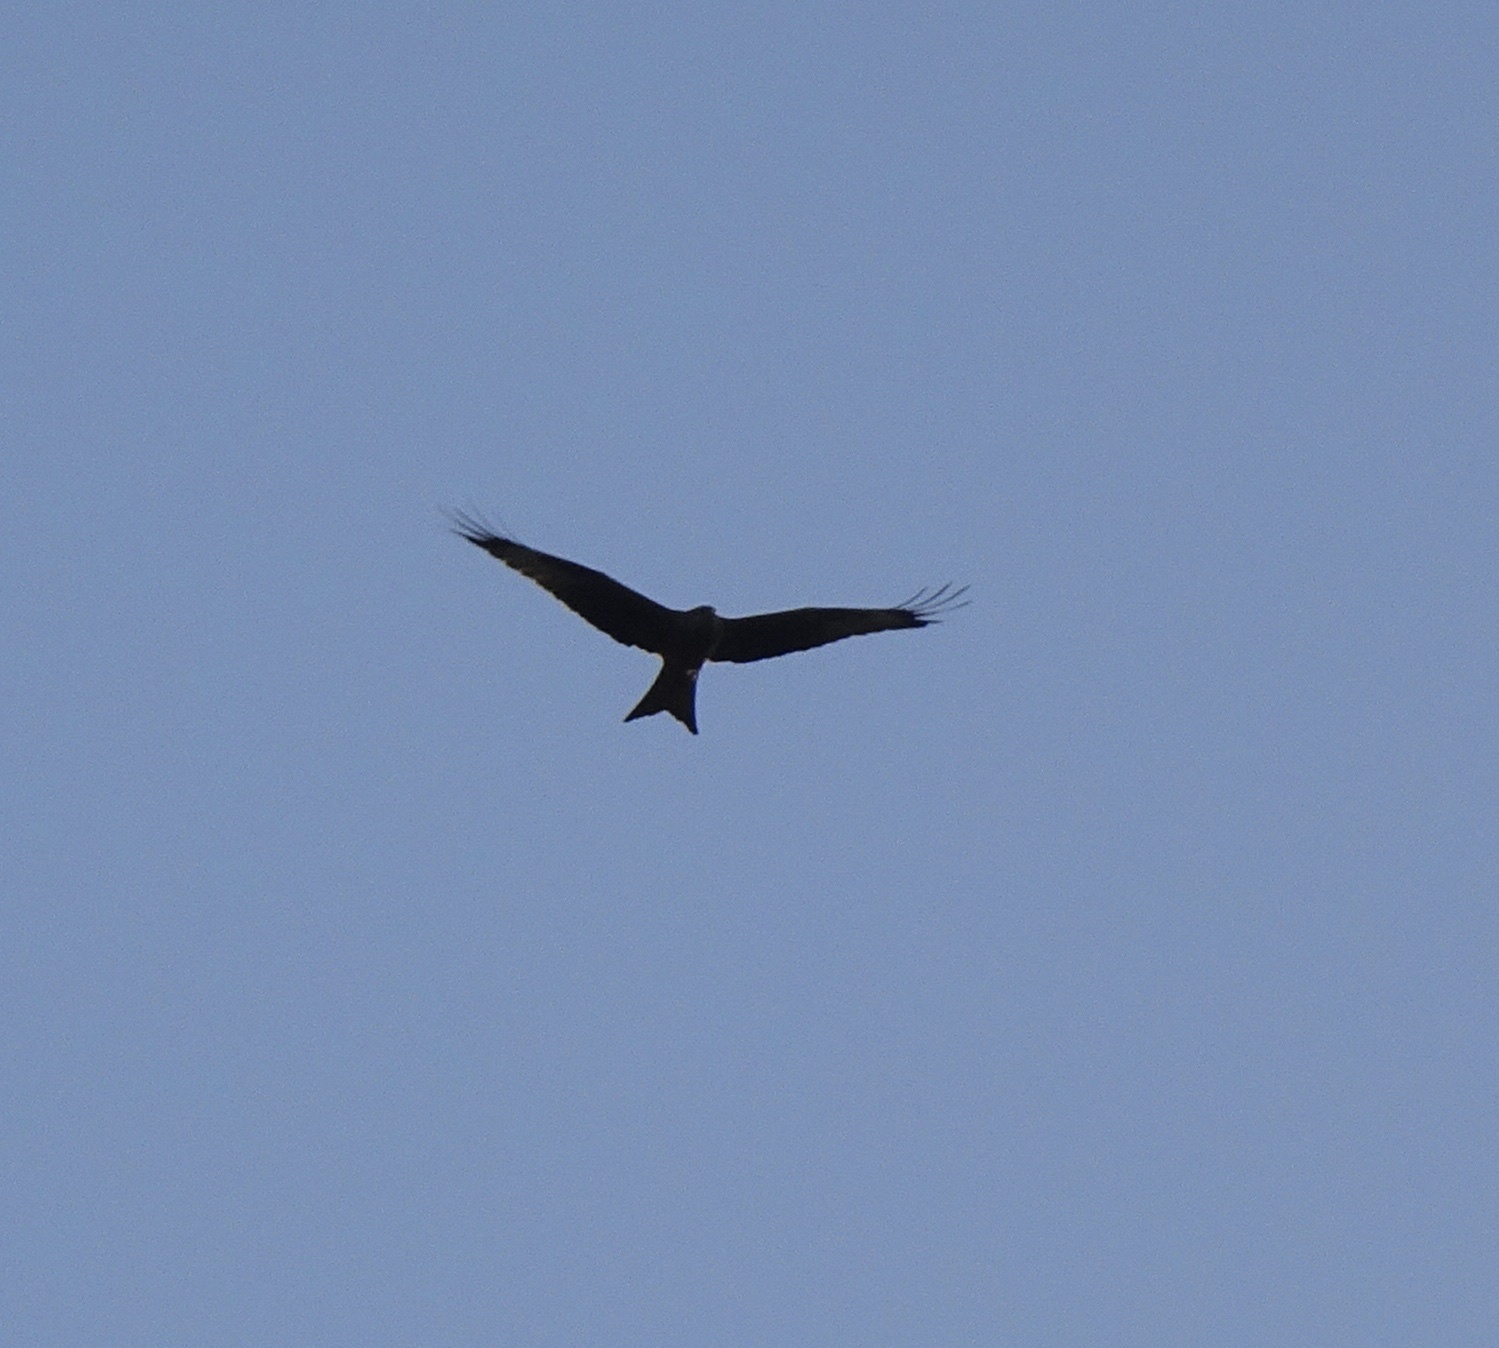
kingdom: Animalia
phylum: Chordata
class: Aves
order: Accipitriformes
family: Accipitridae
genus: Milvus
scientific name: Milvus milvus
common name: Red kite
